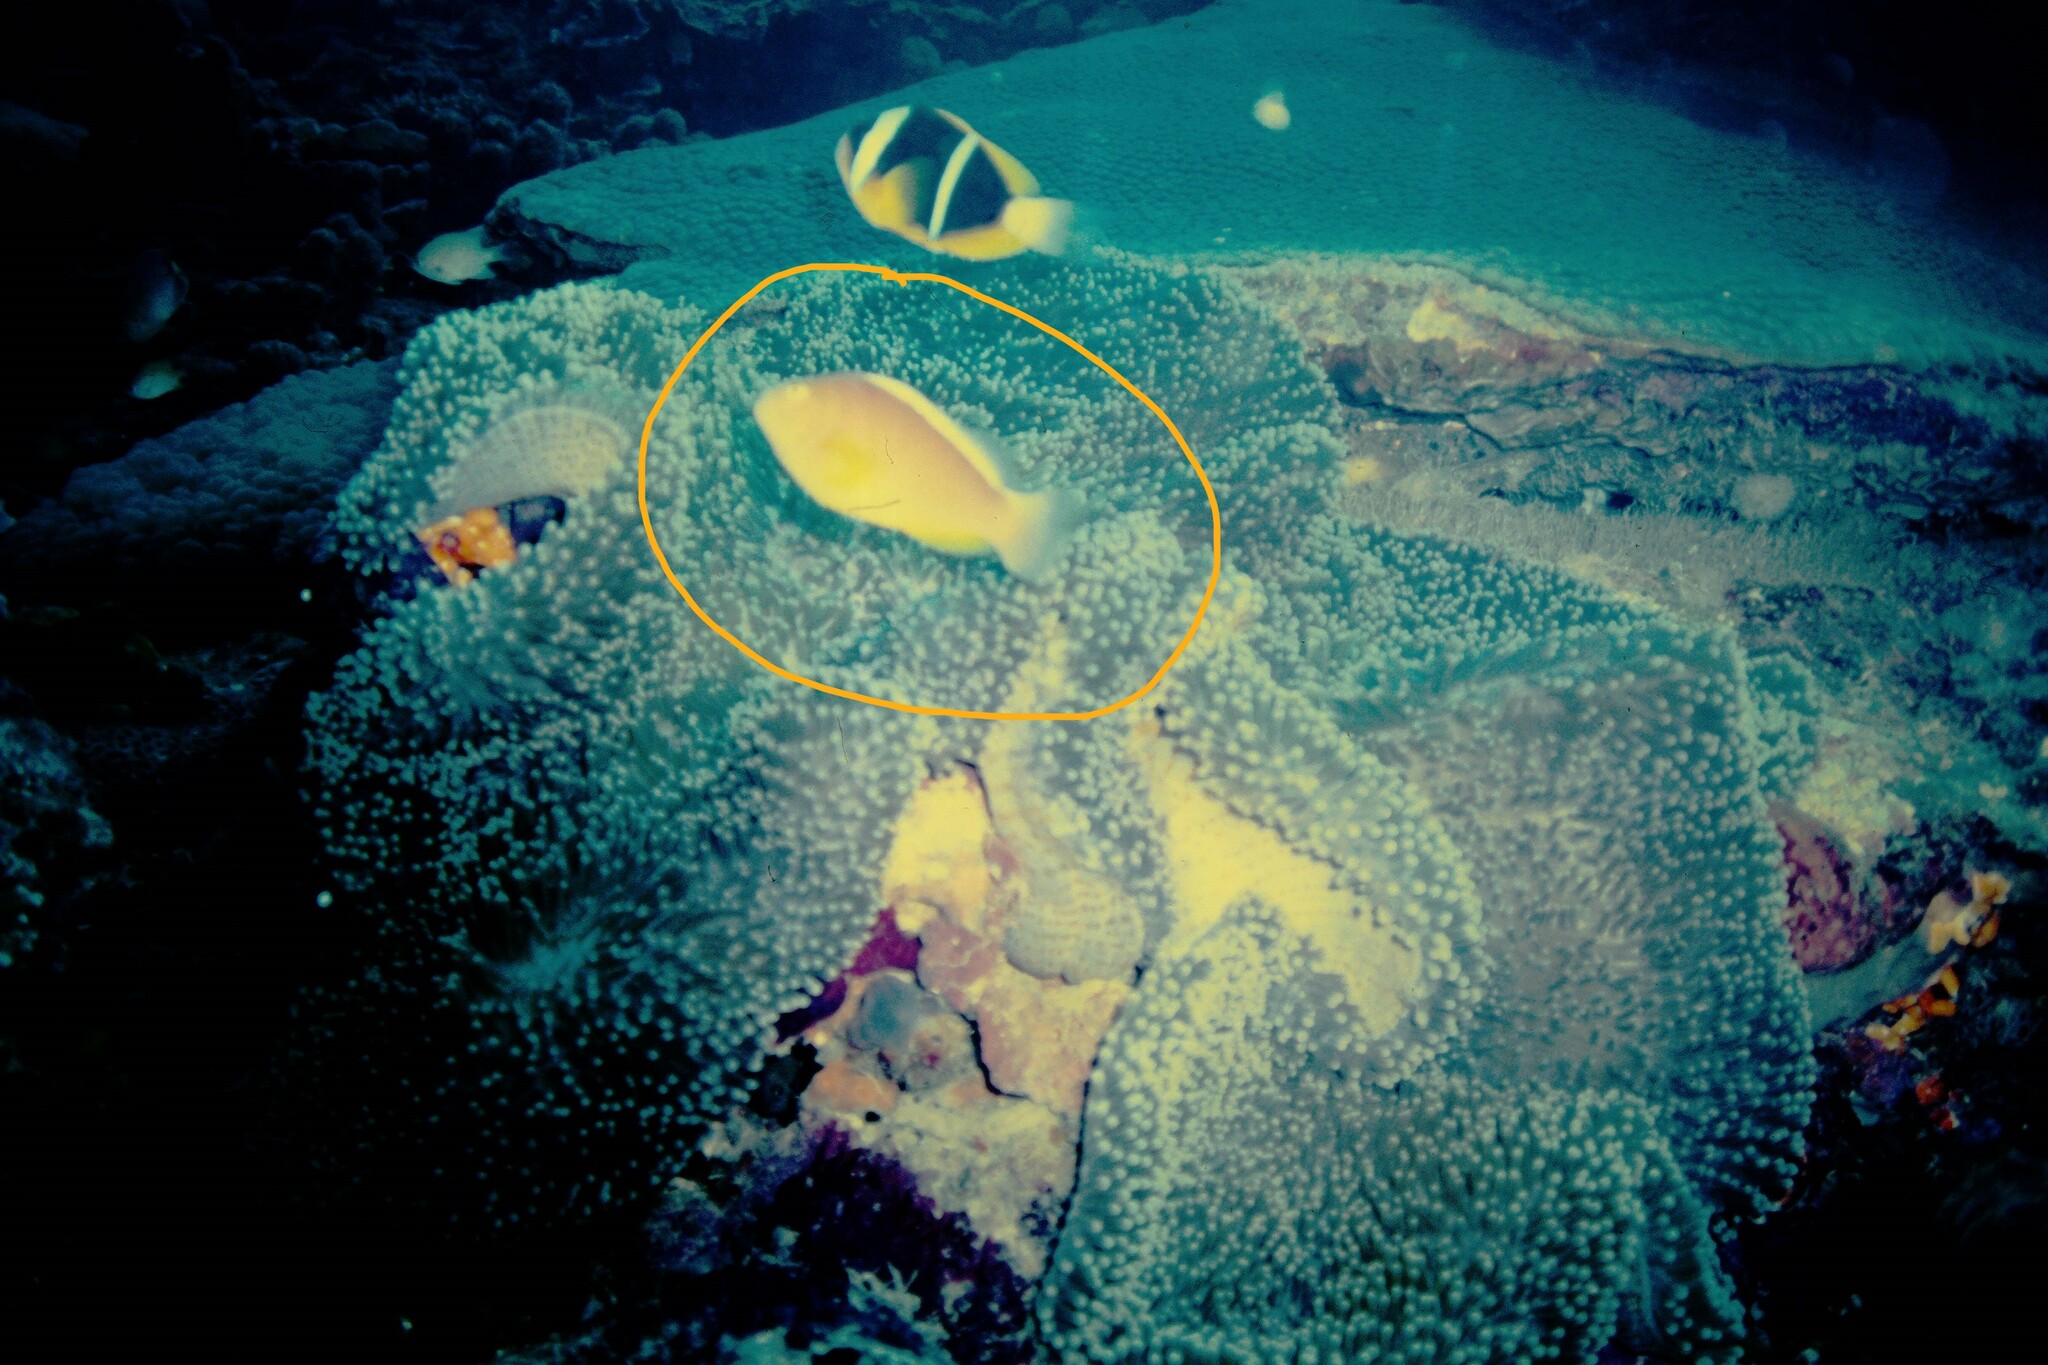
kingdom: Animalia
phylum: Chordata
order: Perciformes
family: Pomacentridae
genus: Amphiprion
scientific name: Amphiprion akallopisos
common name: Skunk clownfish
